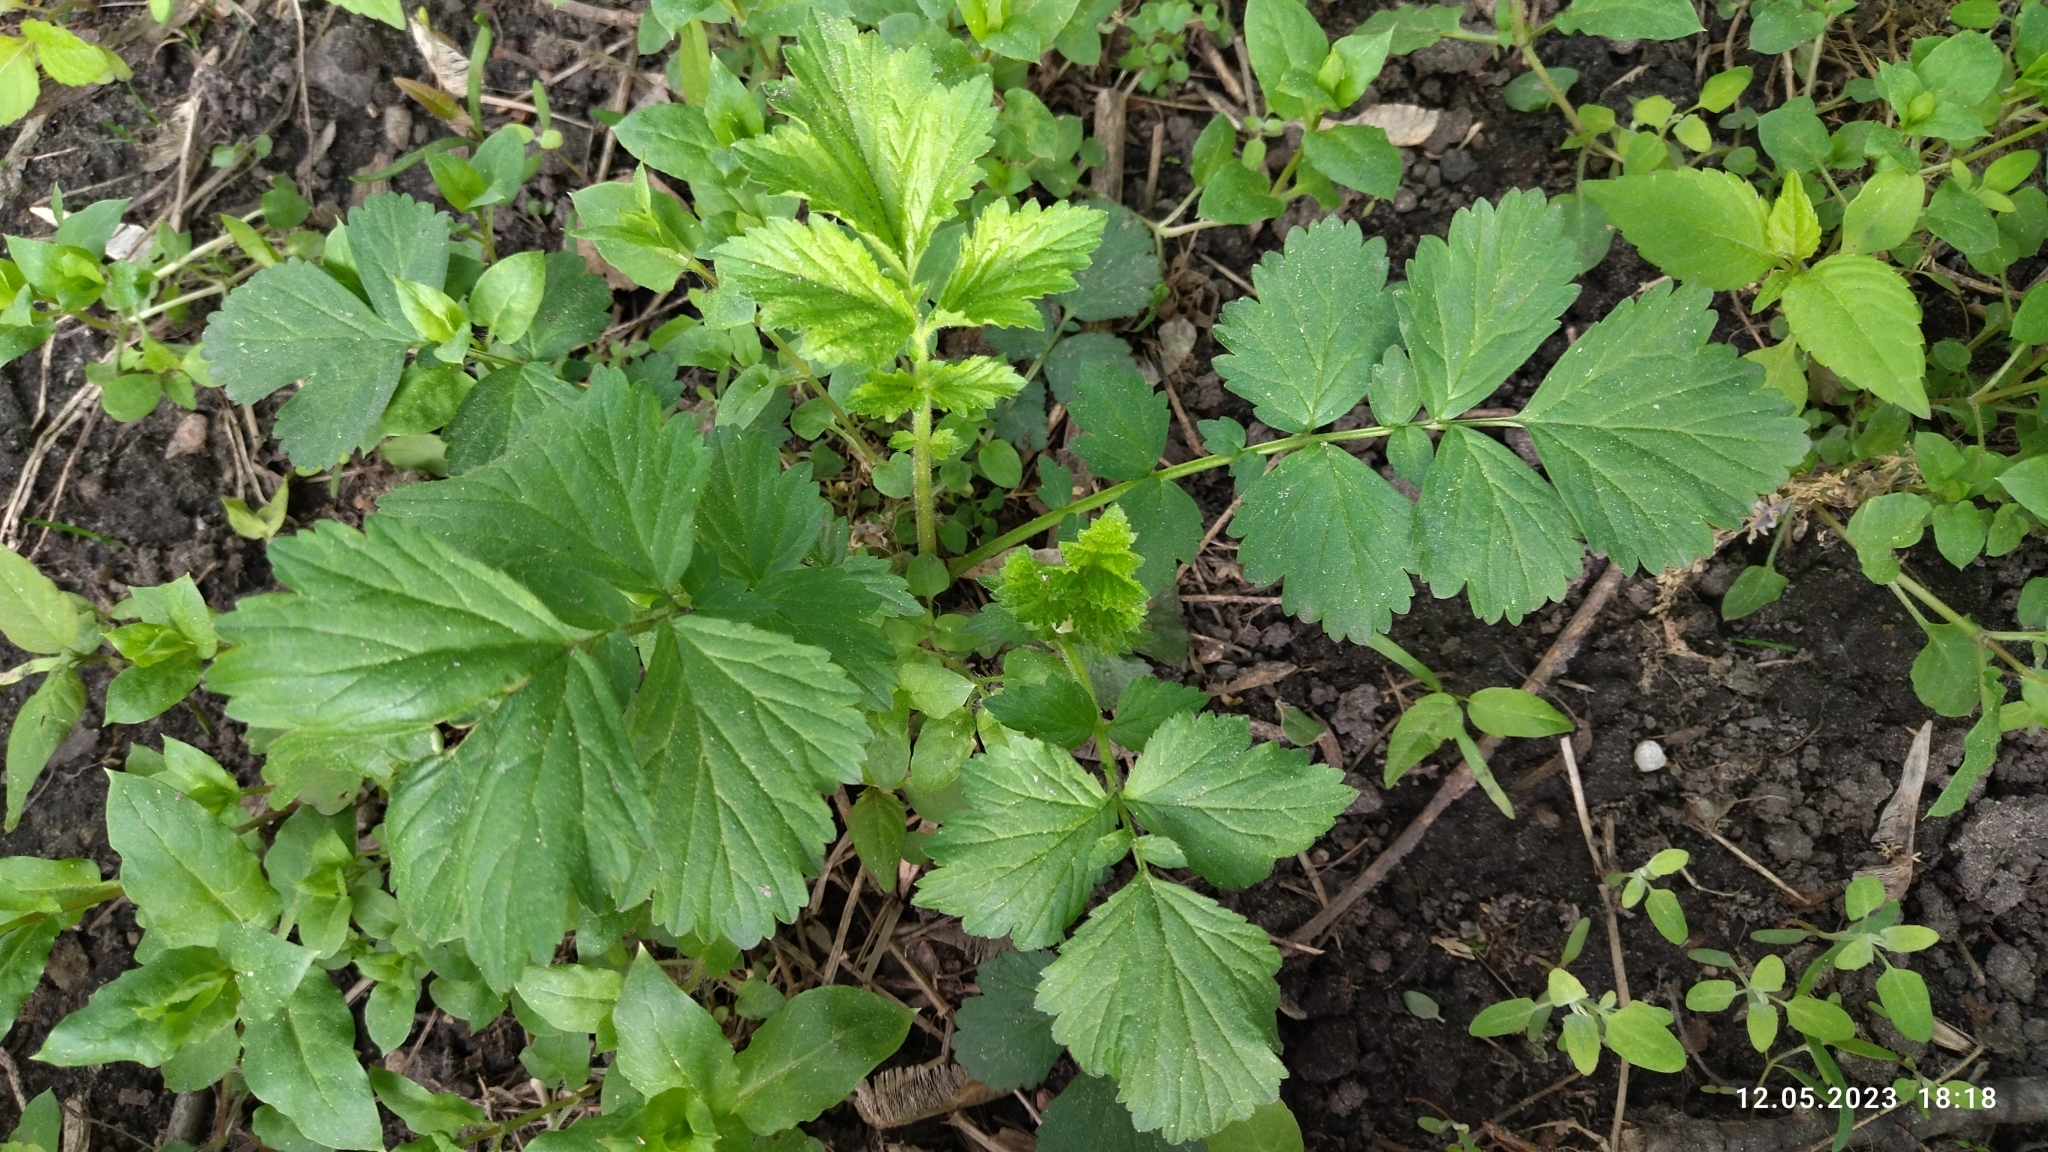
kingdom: Plantae
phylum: Tracheophyta
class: Magnoliopsida
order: Rosales
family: Rosaceae
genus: Geum
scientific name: Geum rivale
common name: Water avens
